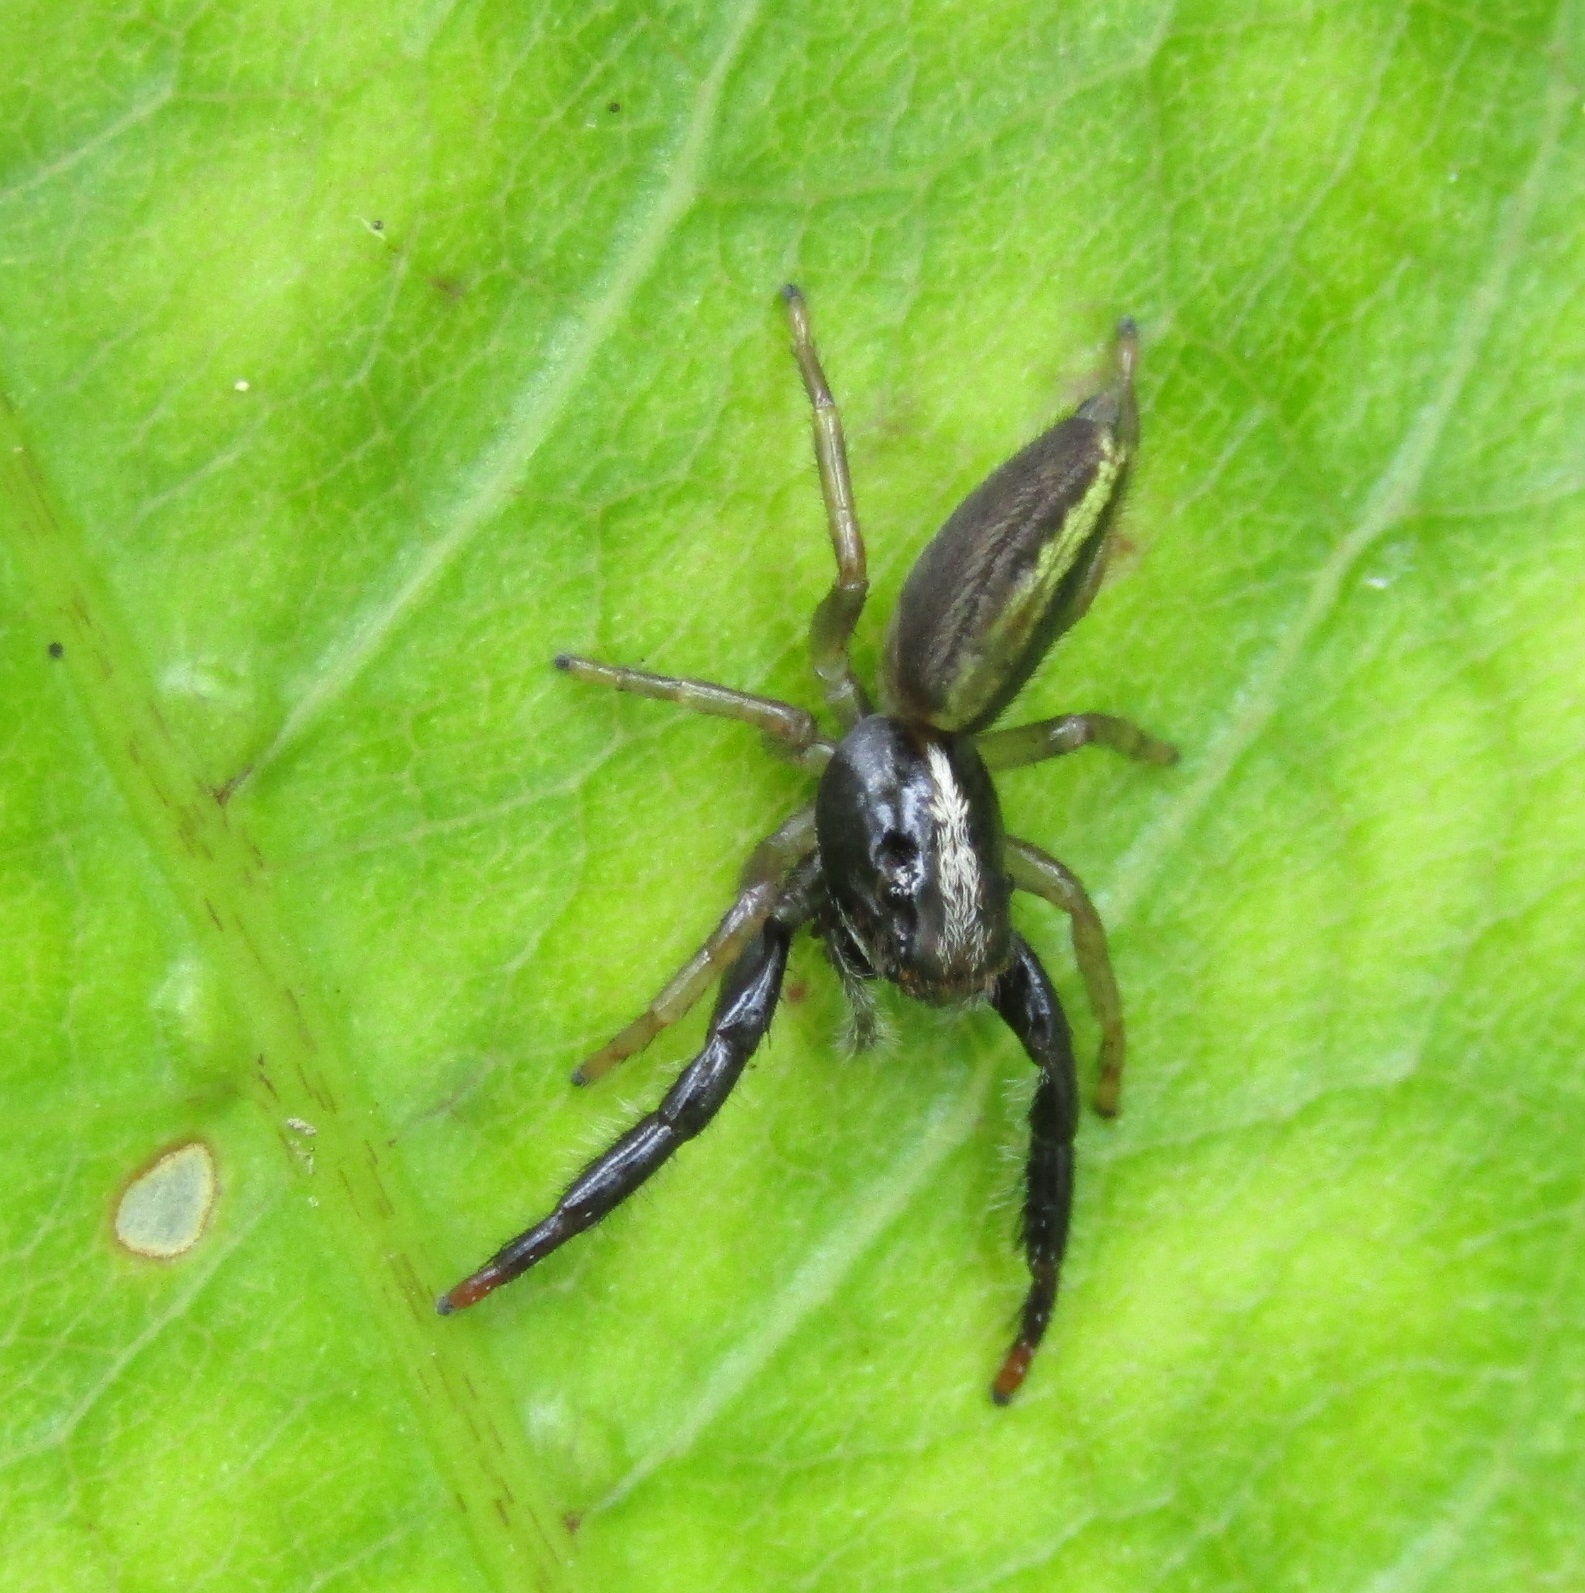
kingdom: Animalia
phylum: Arthropoda
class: Arachnida
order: Araneae
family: Salticidae
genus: Trite
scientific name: Trite planiceps
